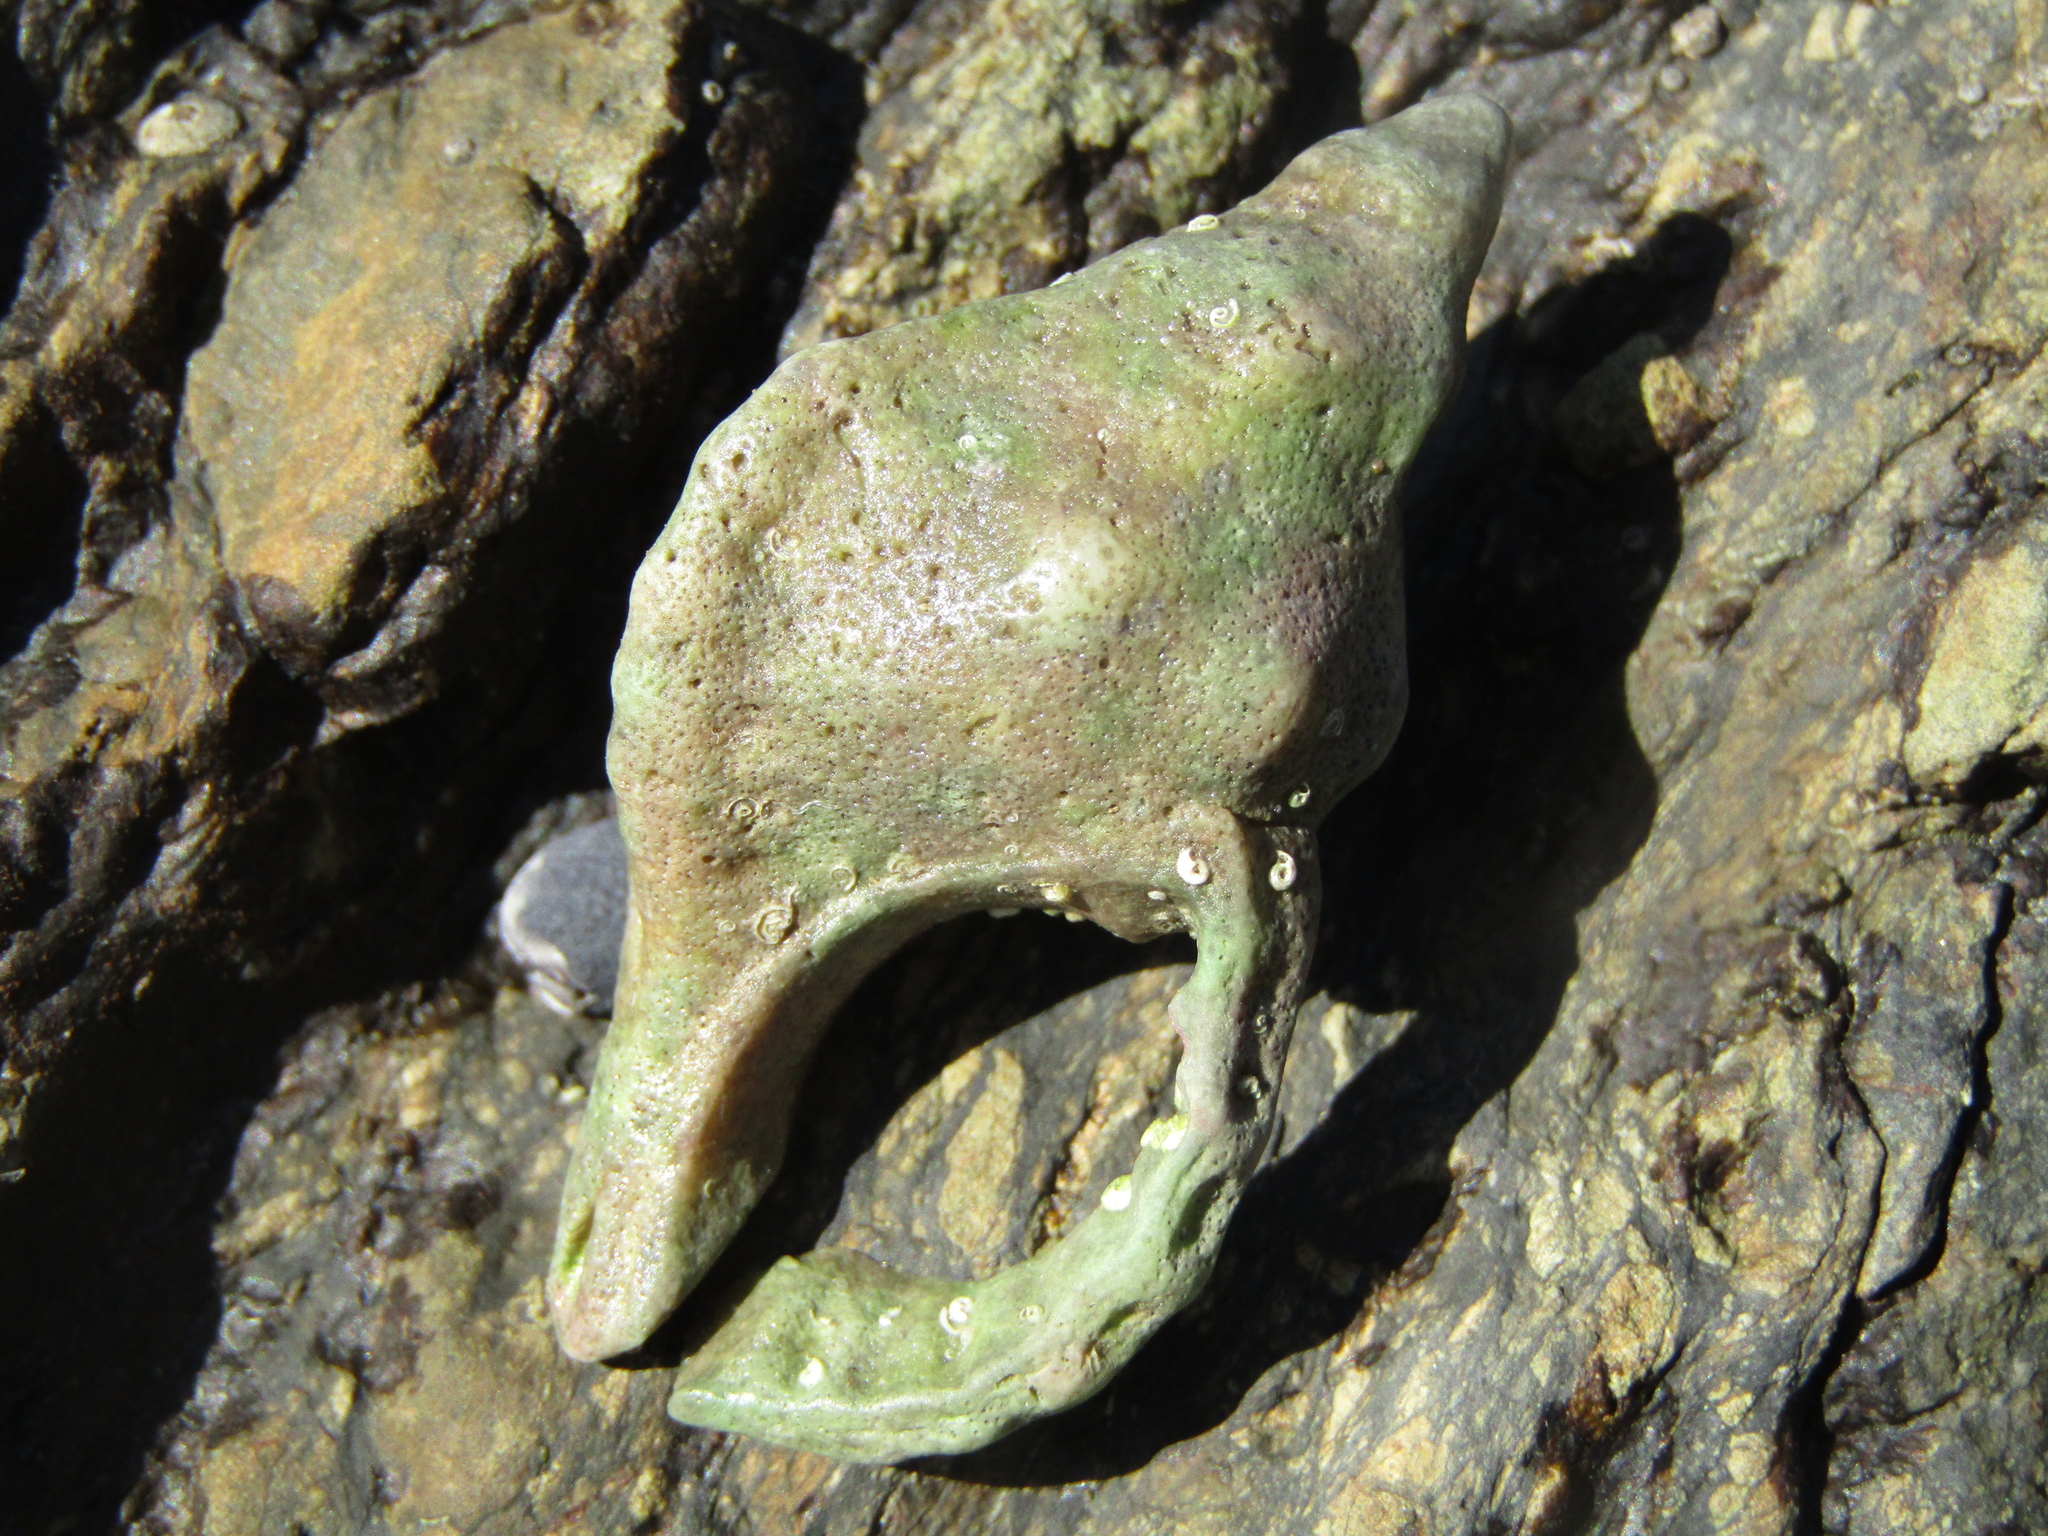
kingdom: Animalia
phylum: Mollusca
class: Gastropoda
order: Littorinimorpha
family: Cymatiidae
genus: Proxicharonia
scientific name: Proxicharonia palmeri
